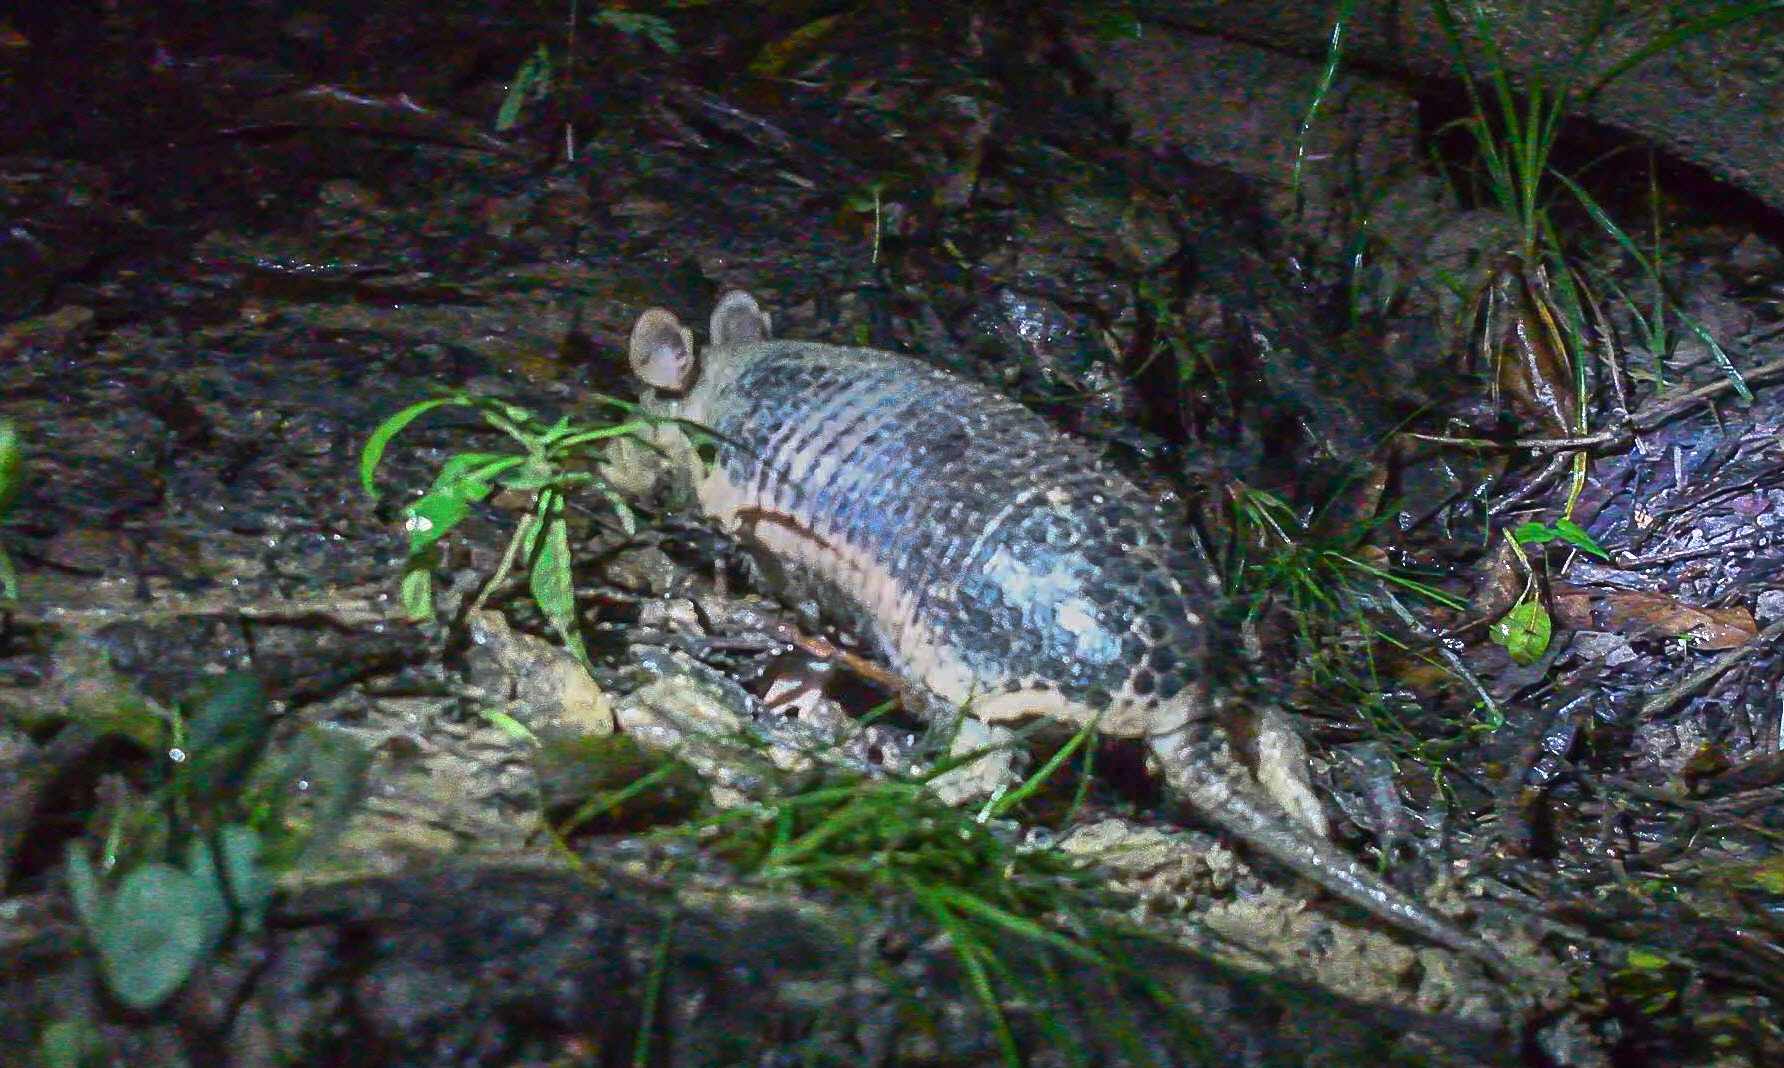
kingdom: Animalia
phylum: Chordata
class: Mammalia
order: Cingulata
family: Dasypodidae
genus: Cabassous
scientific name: Cabassous unicinctus
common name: Southern naked-tailed armadillo
